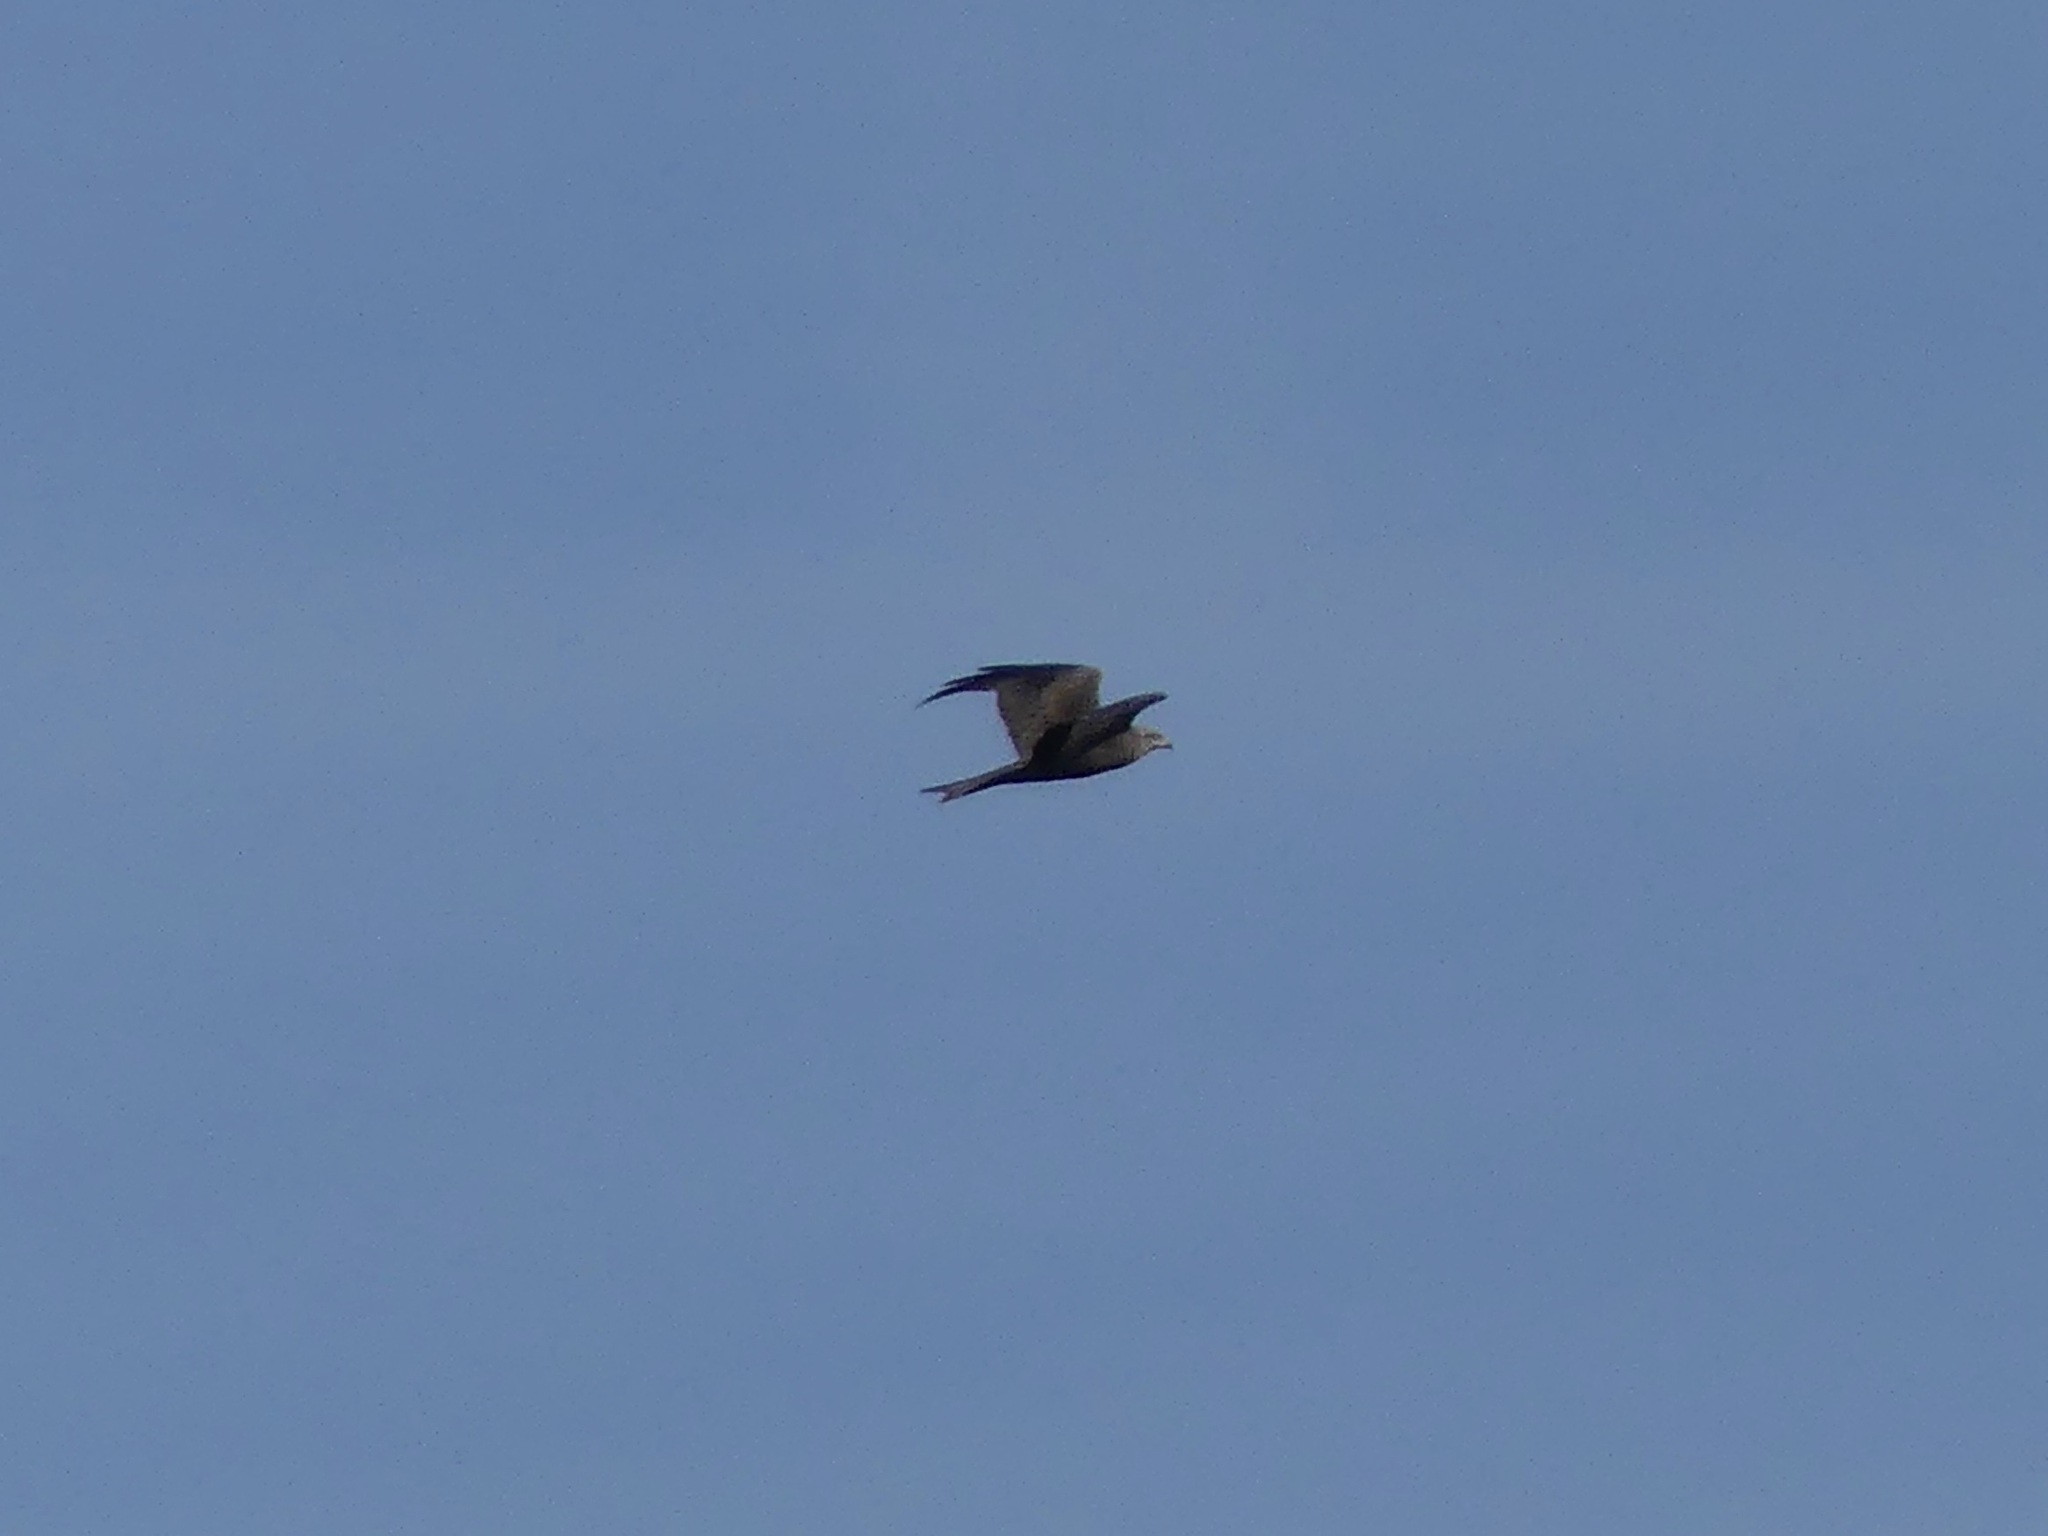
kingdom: Animalia
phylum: Chordata
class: Aves
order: Accipitriformes
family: Accipitridae
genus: Milvus
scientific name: Milvus migrans
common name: Black kite
